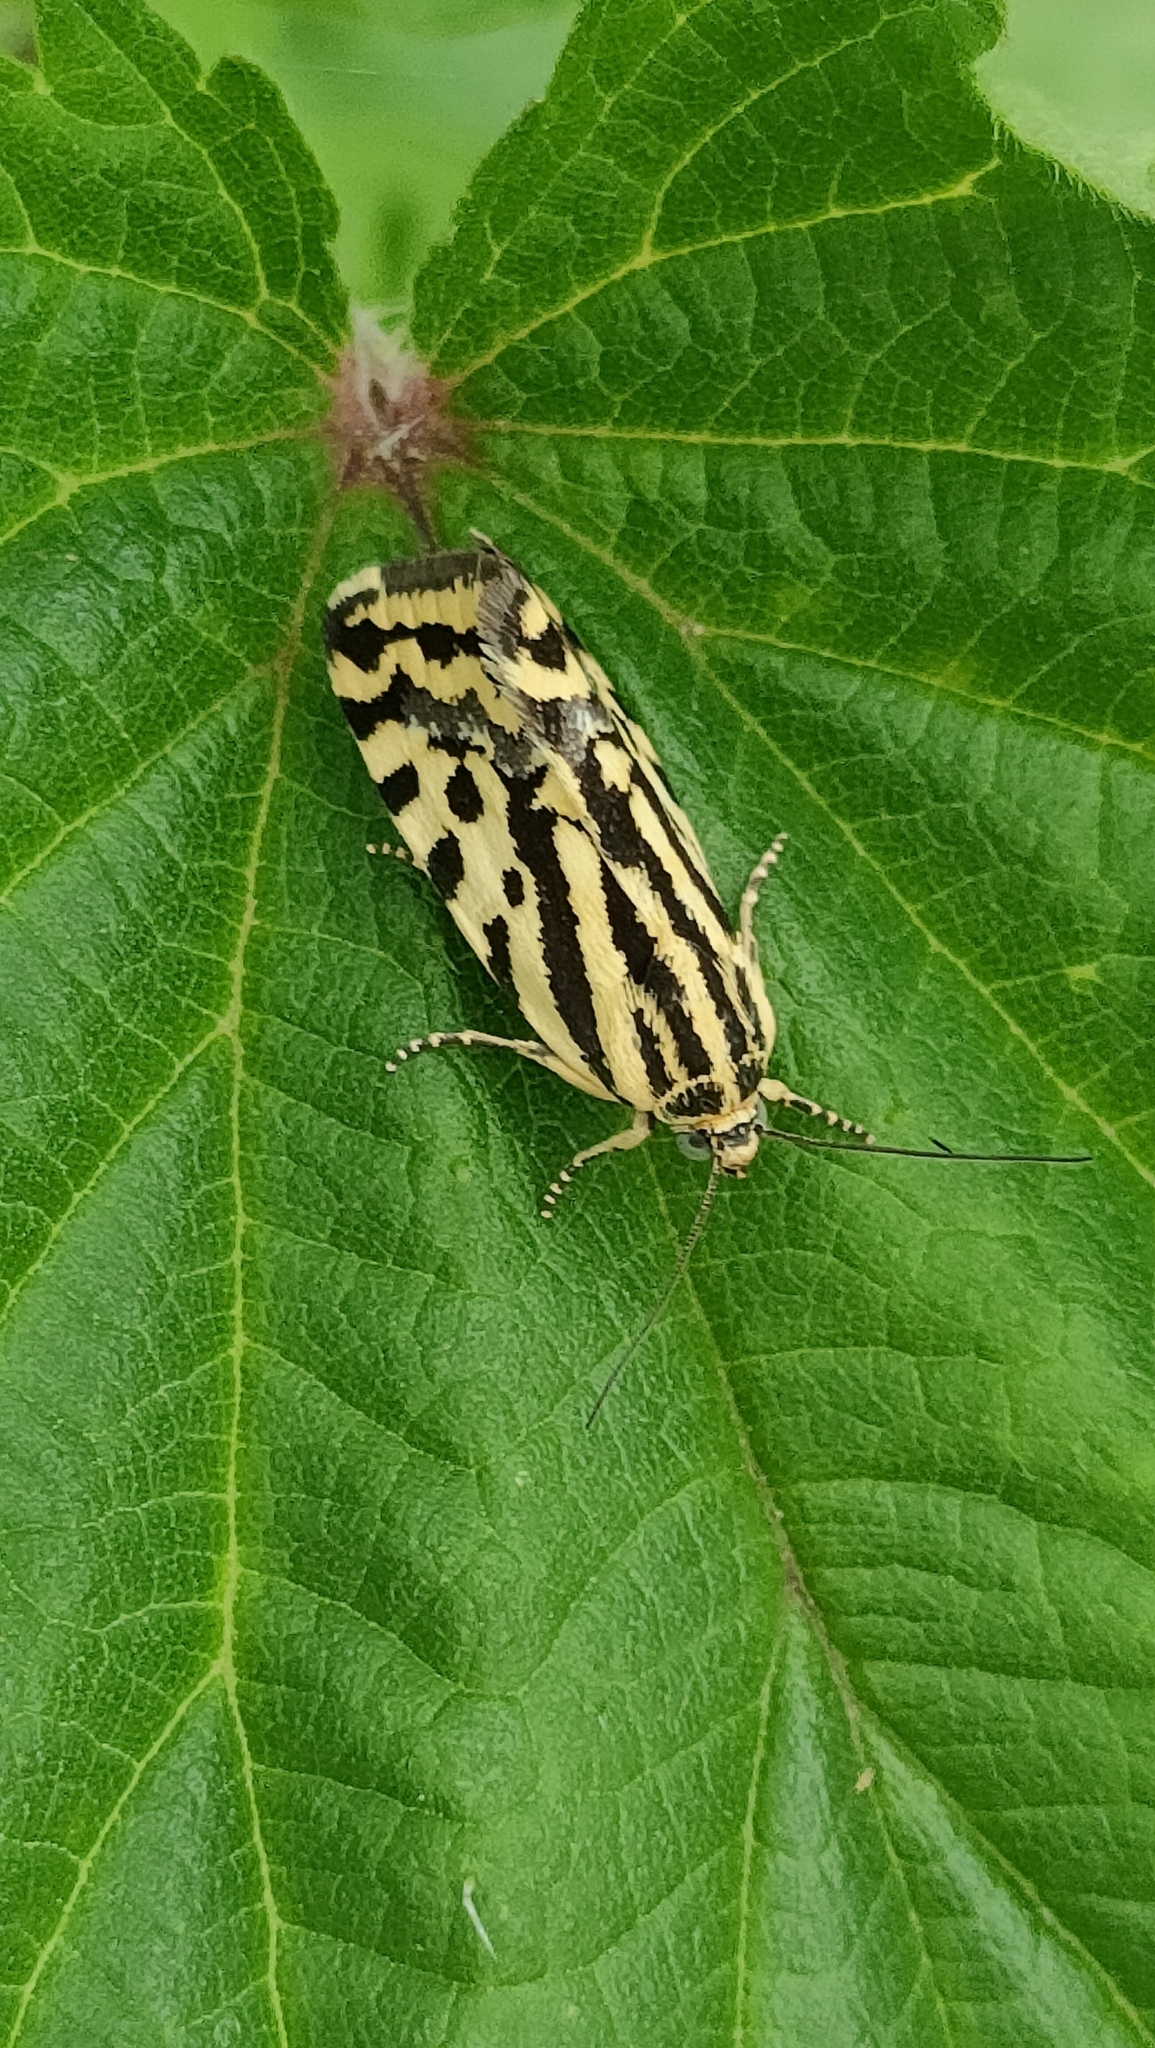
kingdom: Animalia
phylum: Arthropoda
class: Insecta
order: Lepidoptera
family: Noctuidae
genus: Acontia
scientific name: Acontia trabealis
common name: Spotted sulphur
